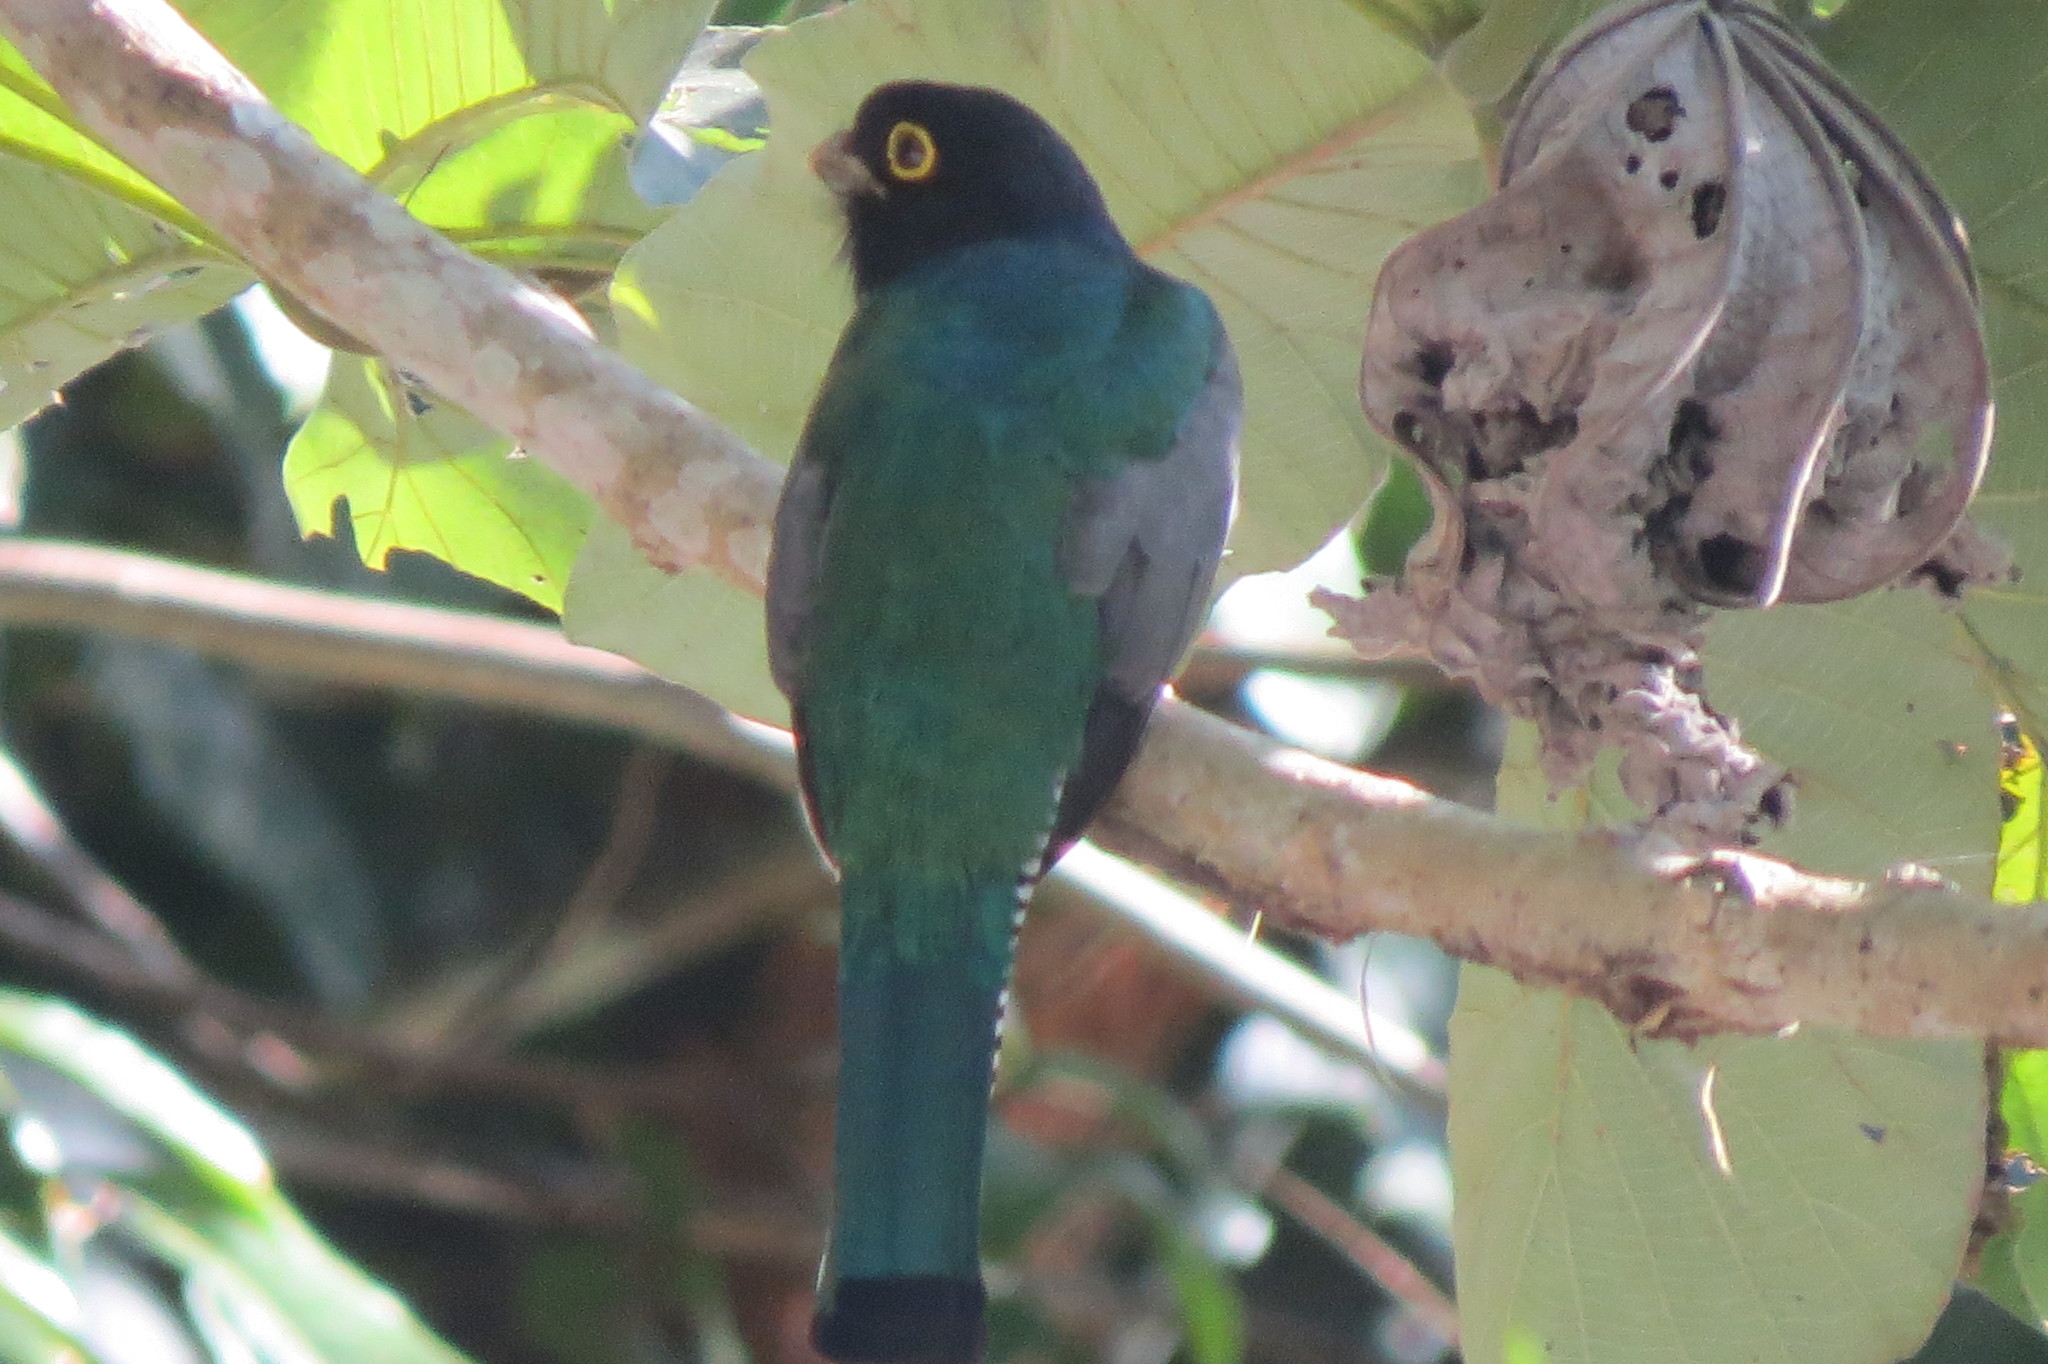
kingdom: Animalia
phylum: Chordata
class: Aves
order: Trogoniformes
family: Trogonidae
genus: Trogon
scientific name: Trogon caligatus
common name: Gartered trogon
